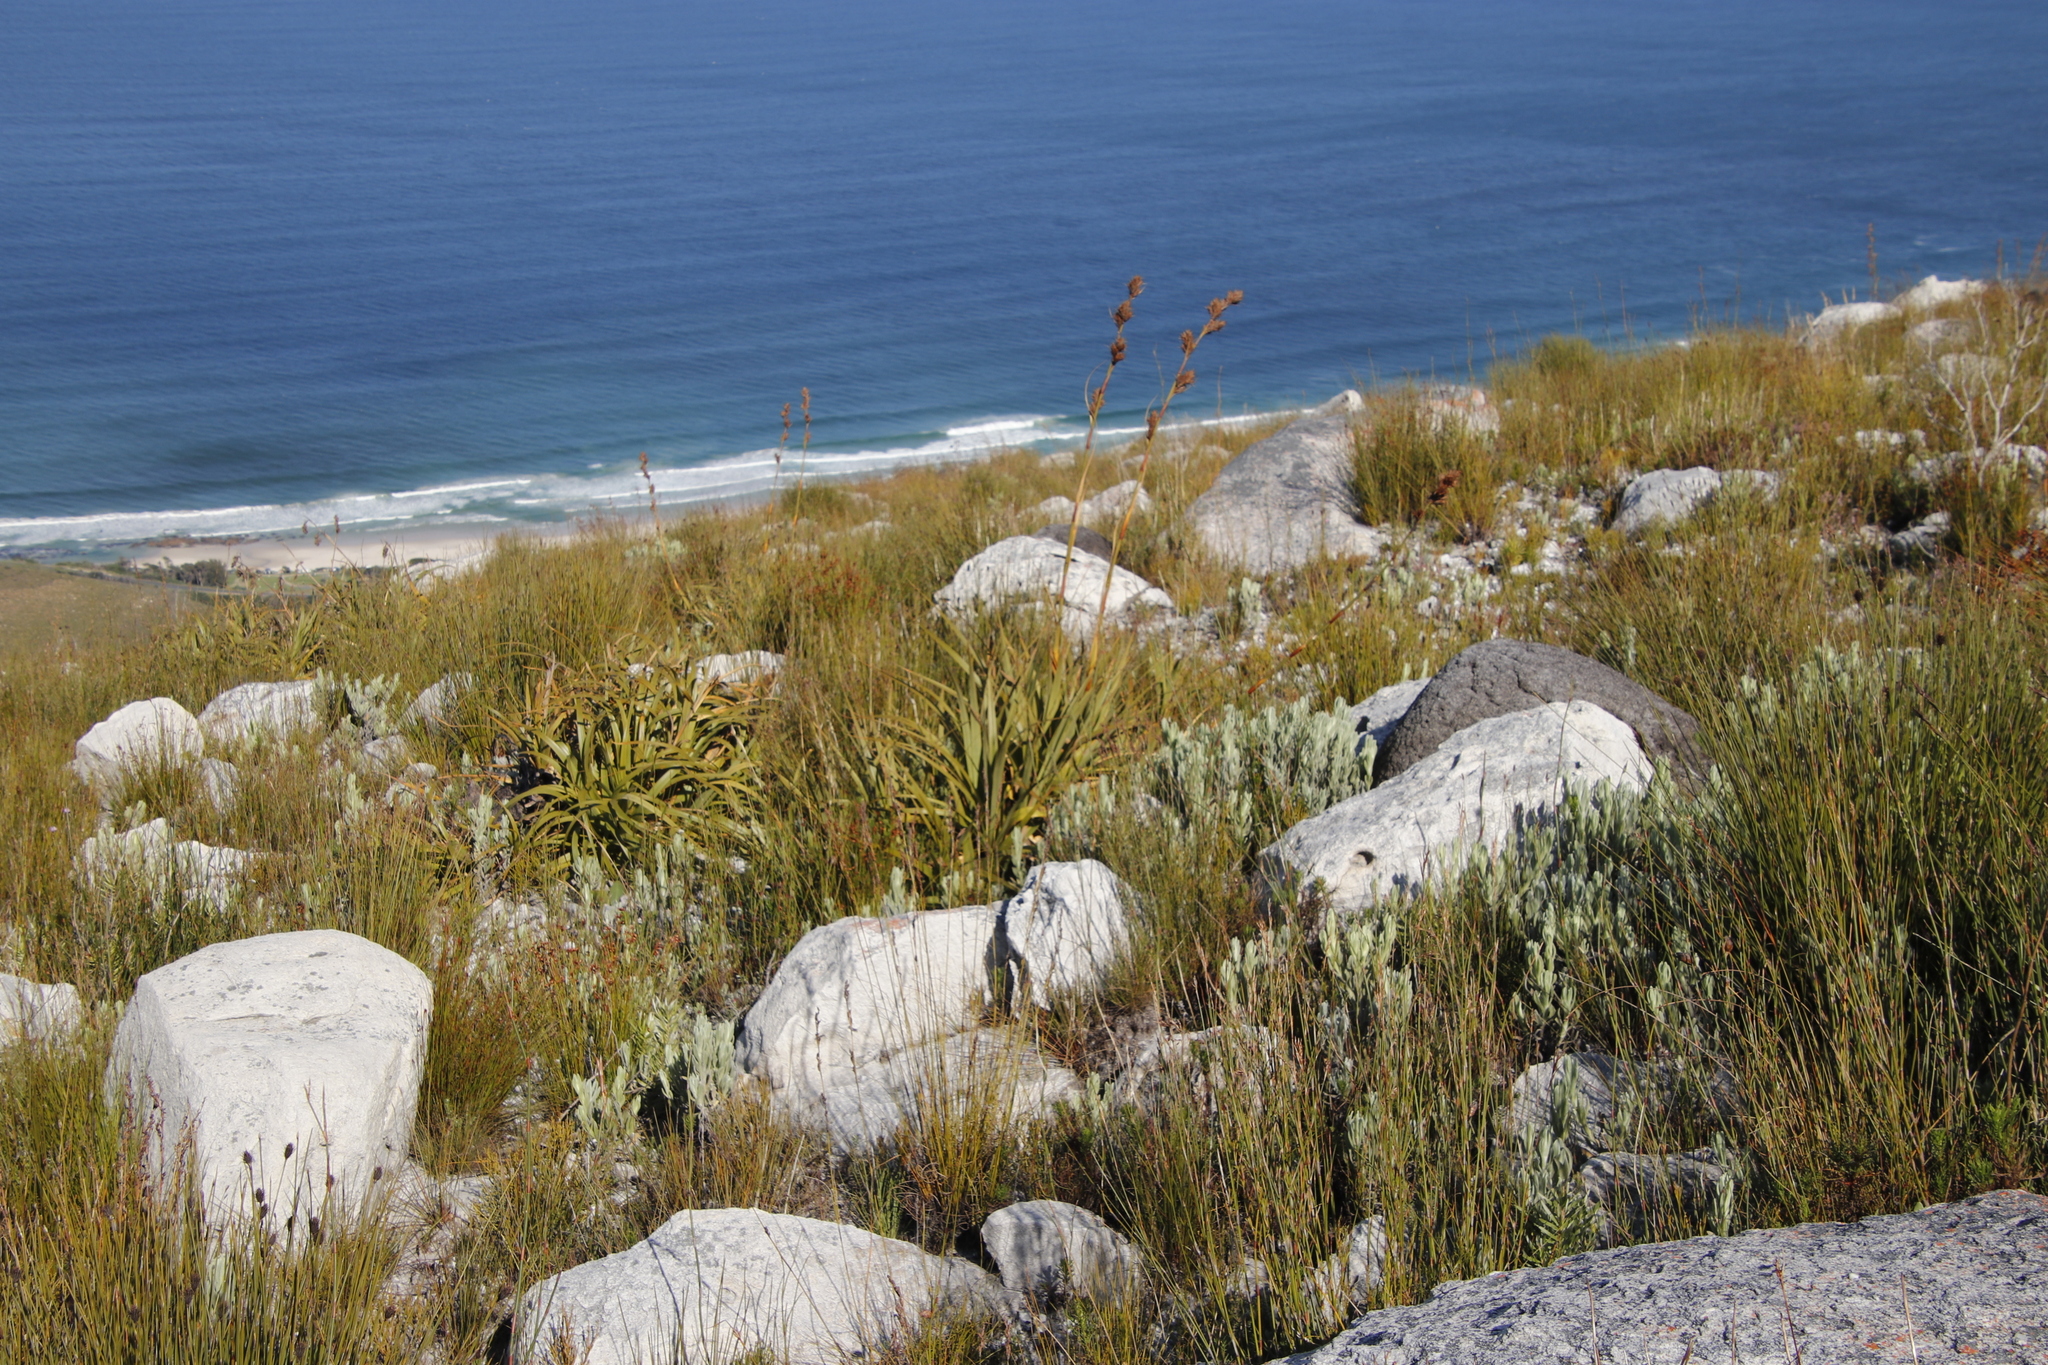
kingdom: Plantae
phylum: Tracheophyta
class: Liliopsida
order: Poales
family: Cyperaceae
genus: Tetraria
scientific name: Tetraria thermalis
